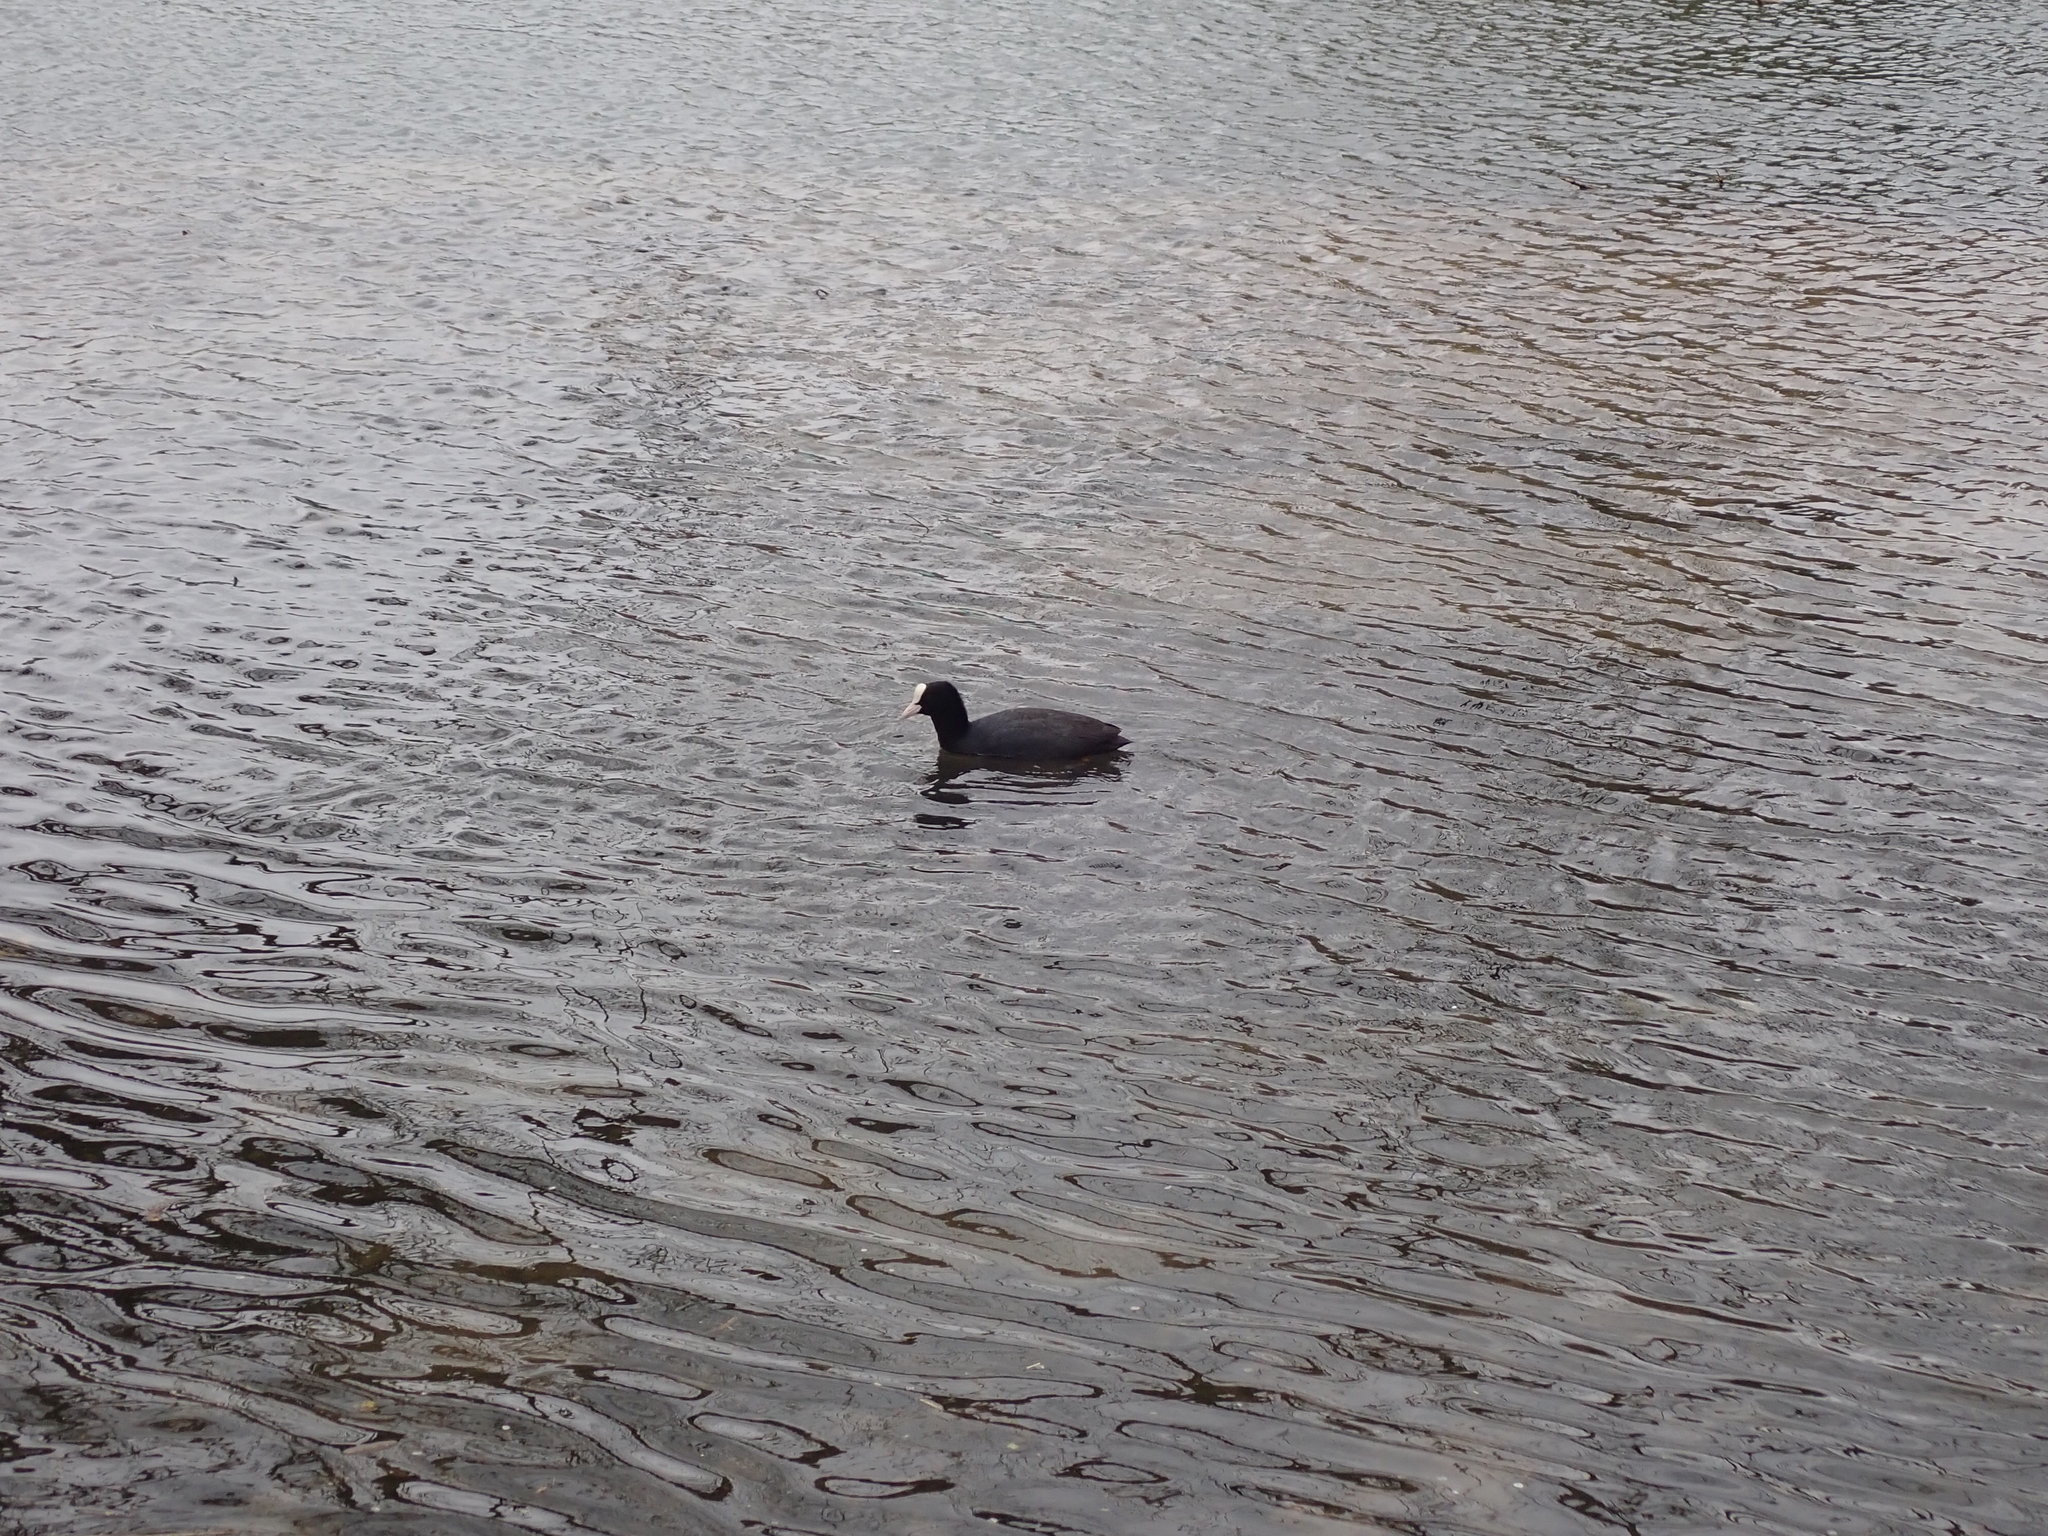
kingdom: Animalia
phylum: Chordata
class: Aves
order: Gruiformes
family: Rallidae
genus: Fulica
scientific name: Fulica atra
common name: Eurasian coot
